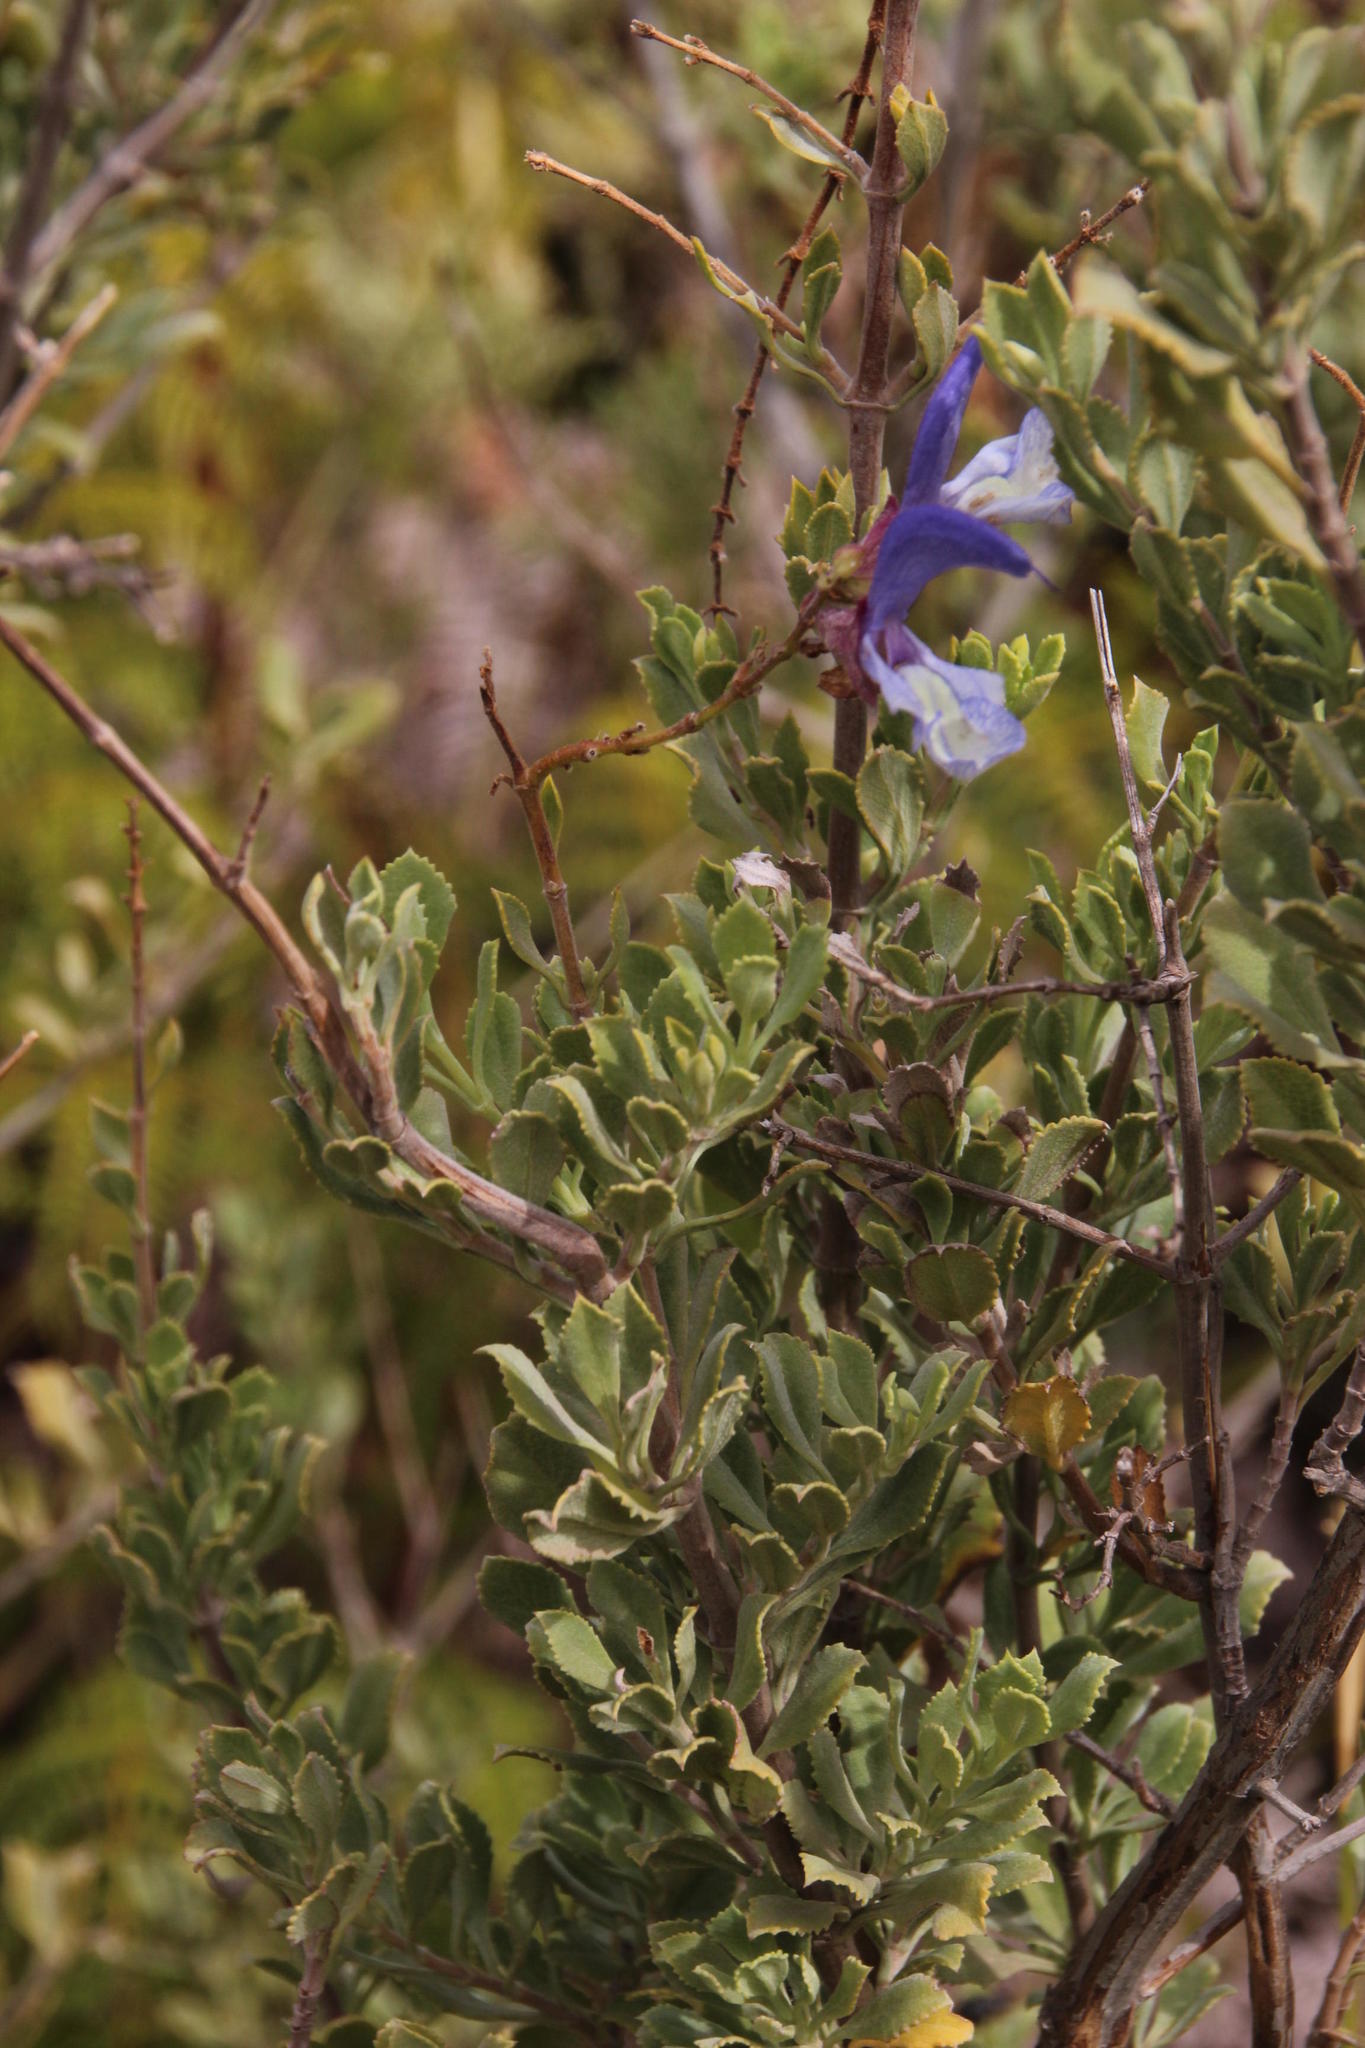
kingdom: Plantae
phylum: Tracheophyta
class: Magnoliopsida
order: Lamiales
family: Lamiaceae
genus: Salvia
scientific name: Salvia africana
